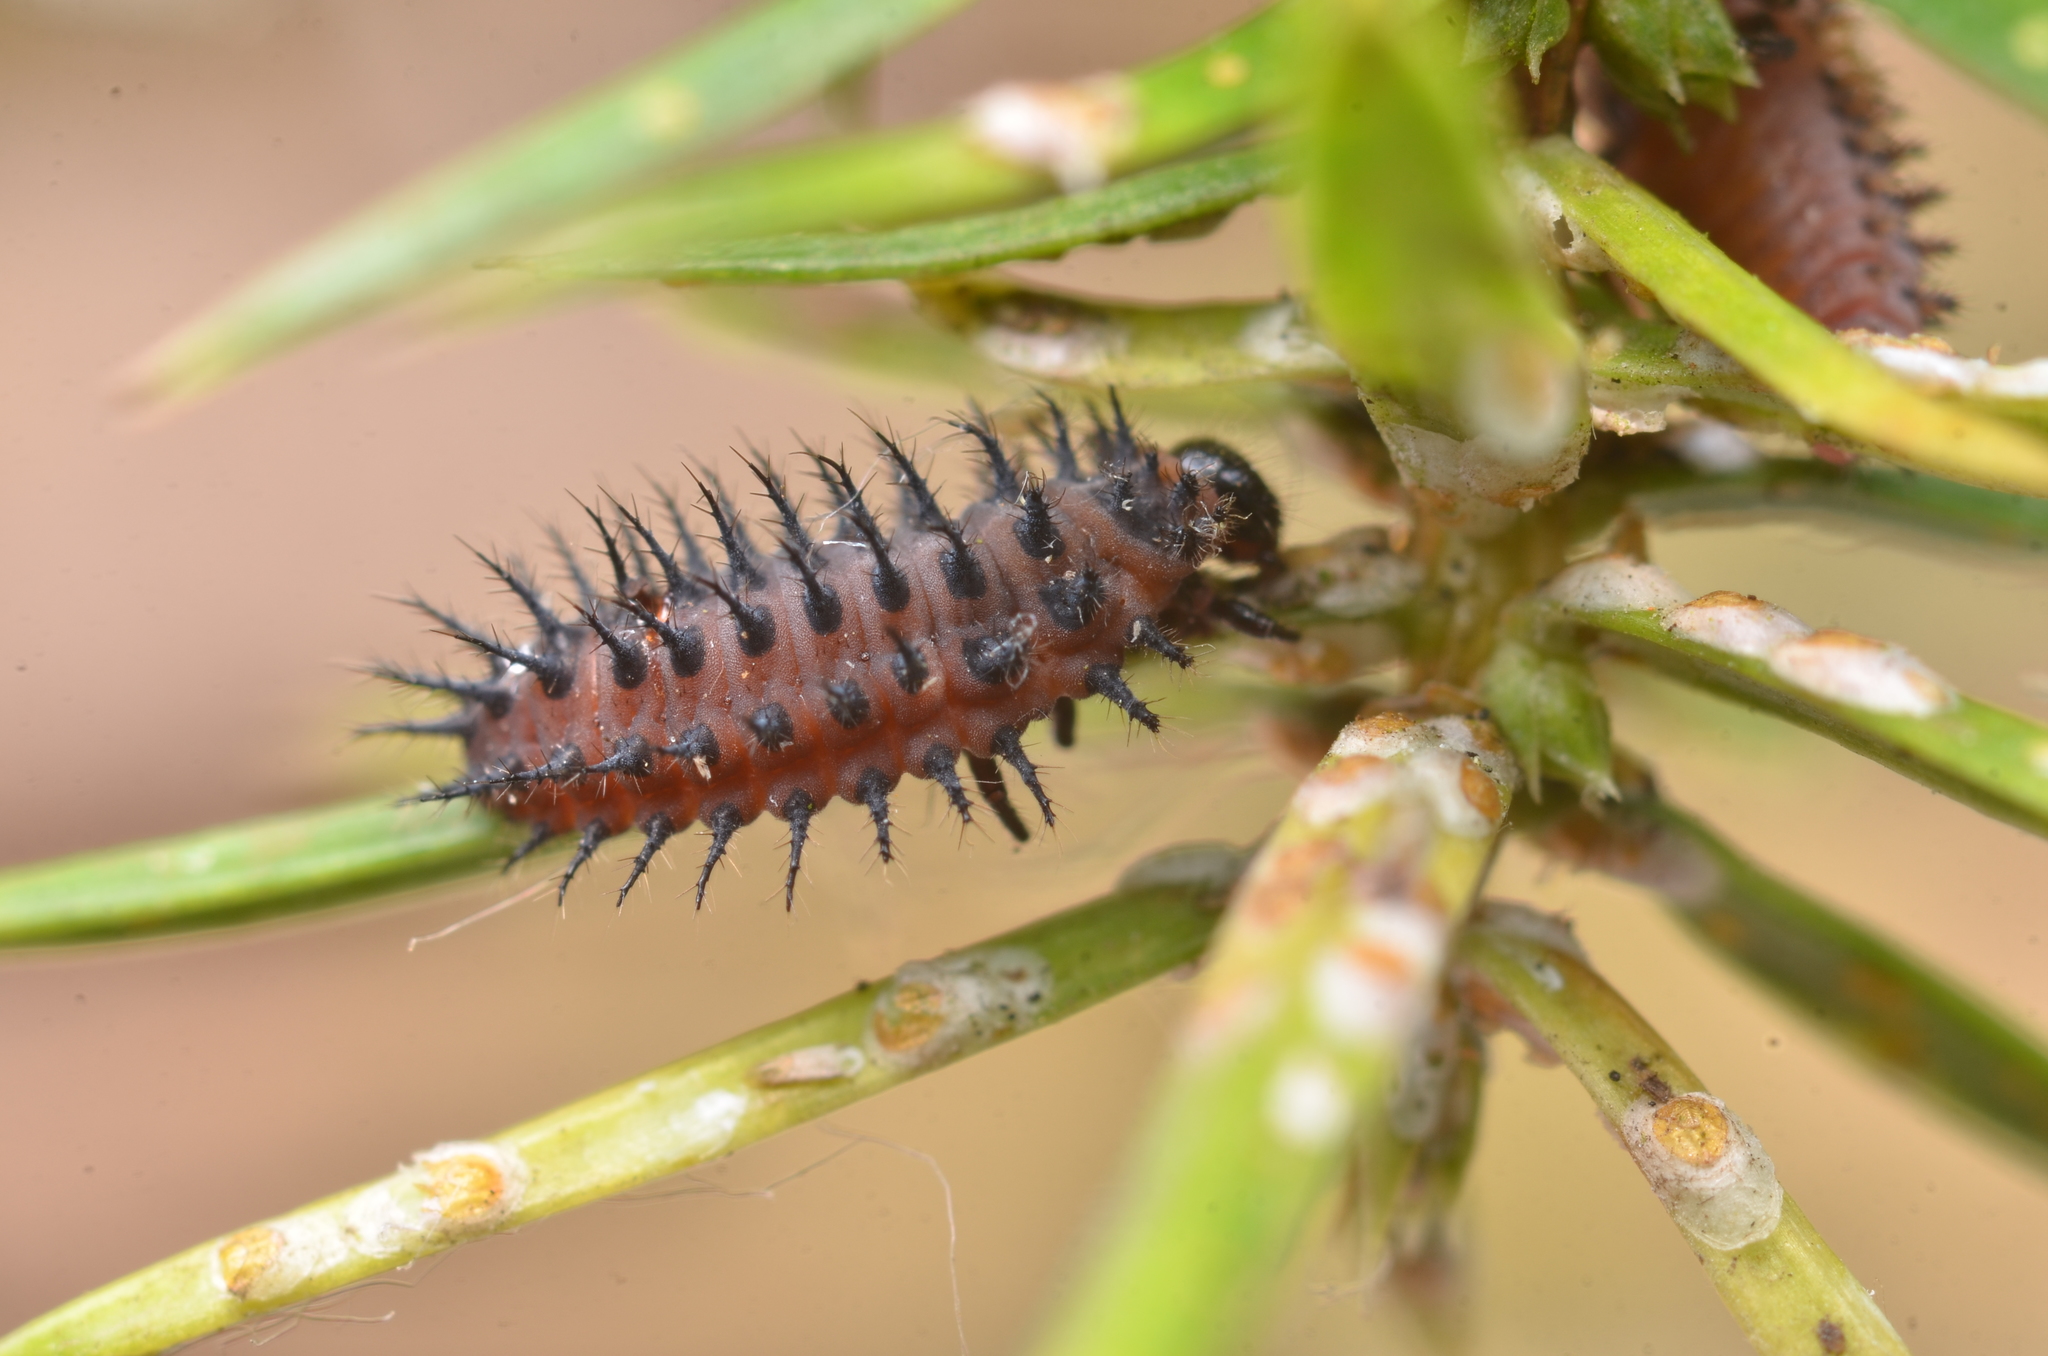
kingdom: Animalia
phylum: Arthropoda
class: Insecta
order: Coleoptera
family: Coccinellidae
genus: Chilocorus
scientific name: Chilocorus renipustulatus
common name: Kidney-spot ladybird
